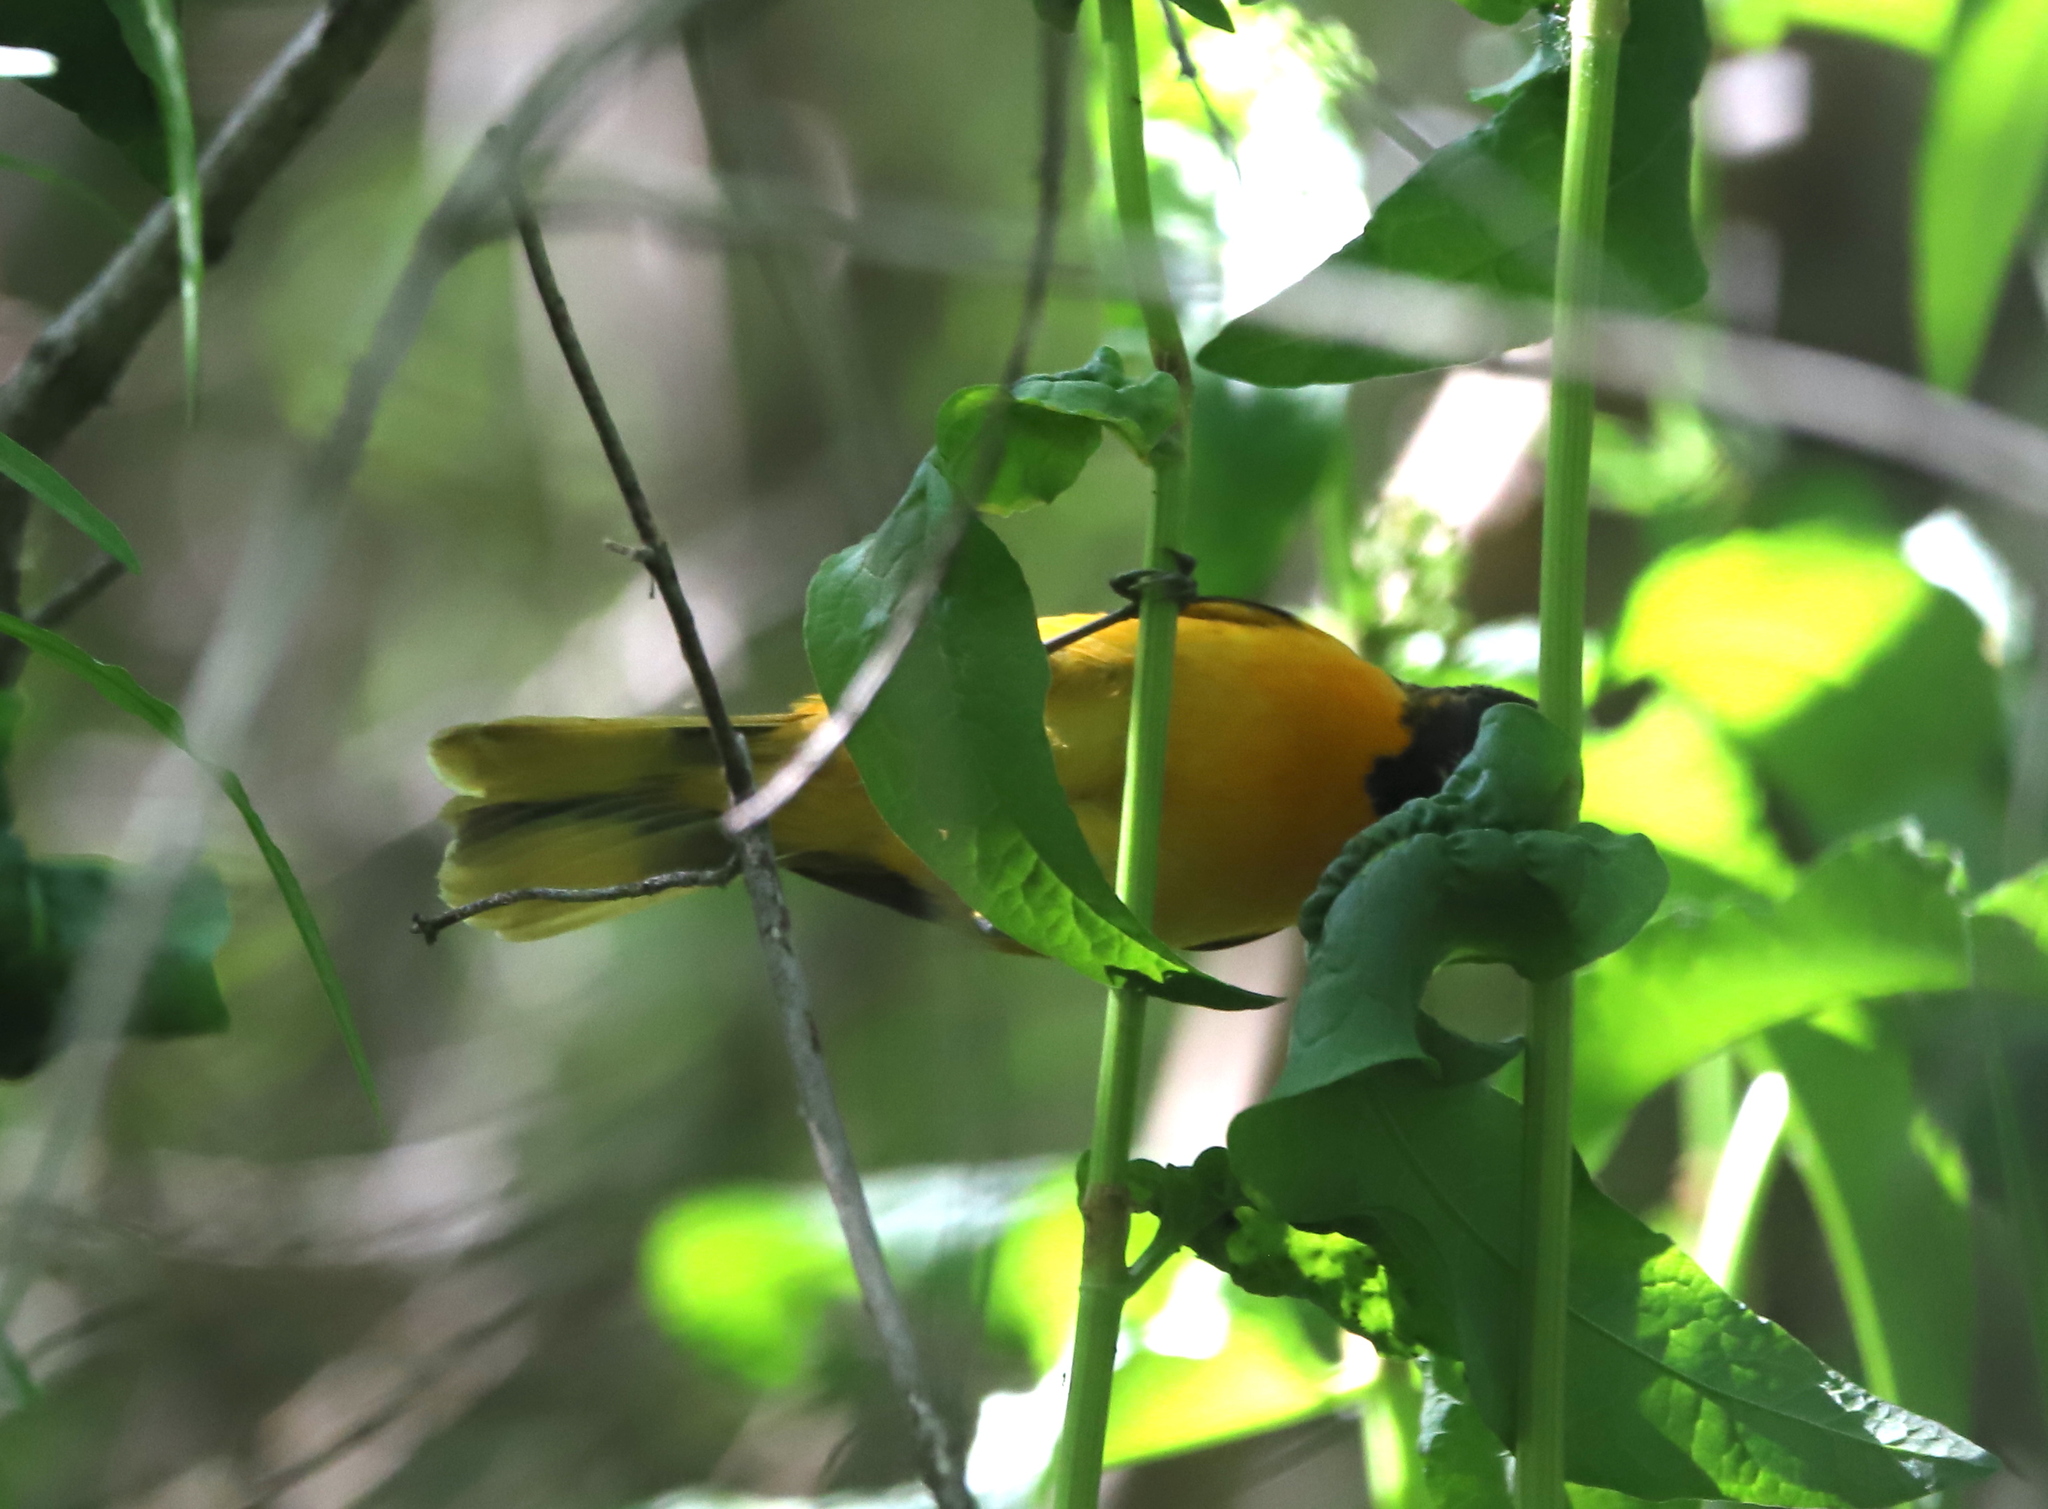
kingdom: Animalia
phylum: Chordata
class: Aves
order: Passeriformes
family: Icteridae
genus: Icterus
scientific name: Icterus galbula
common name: Baltimore oriole
